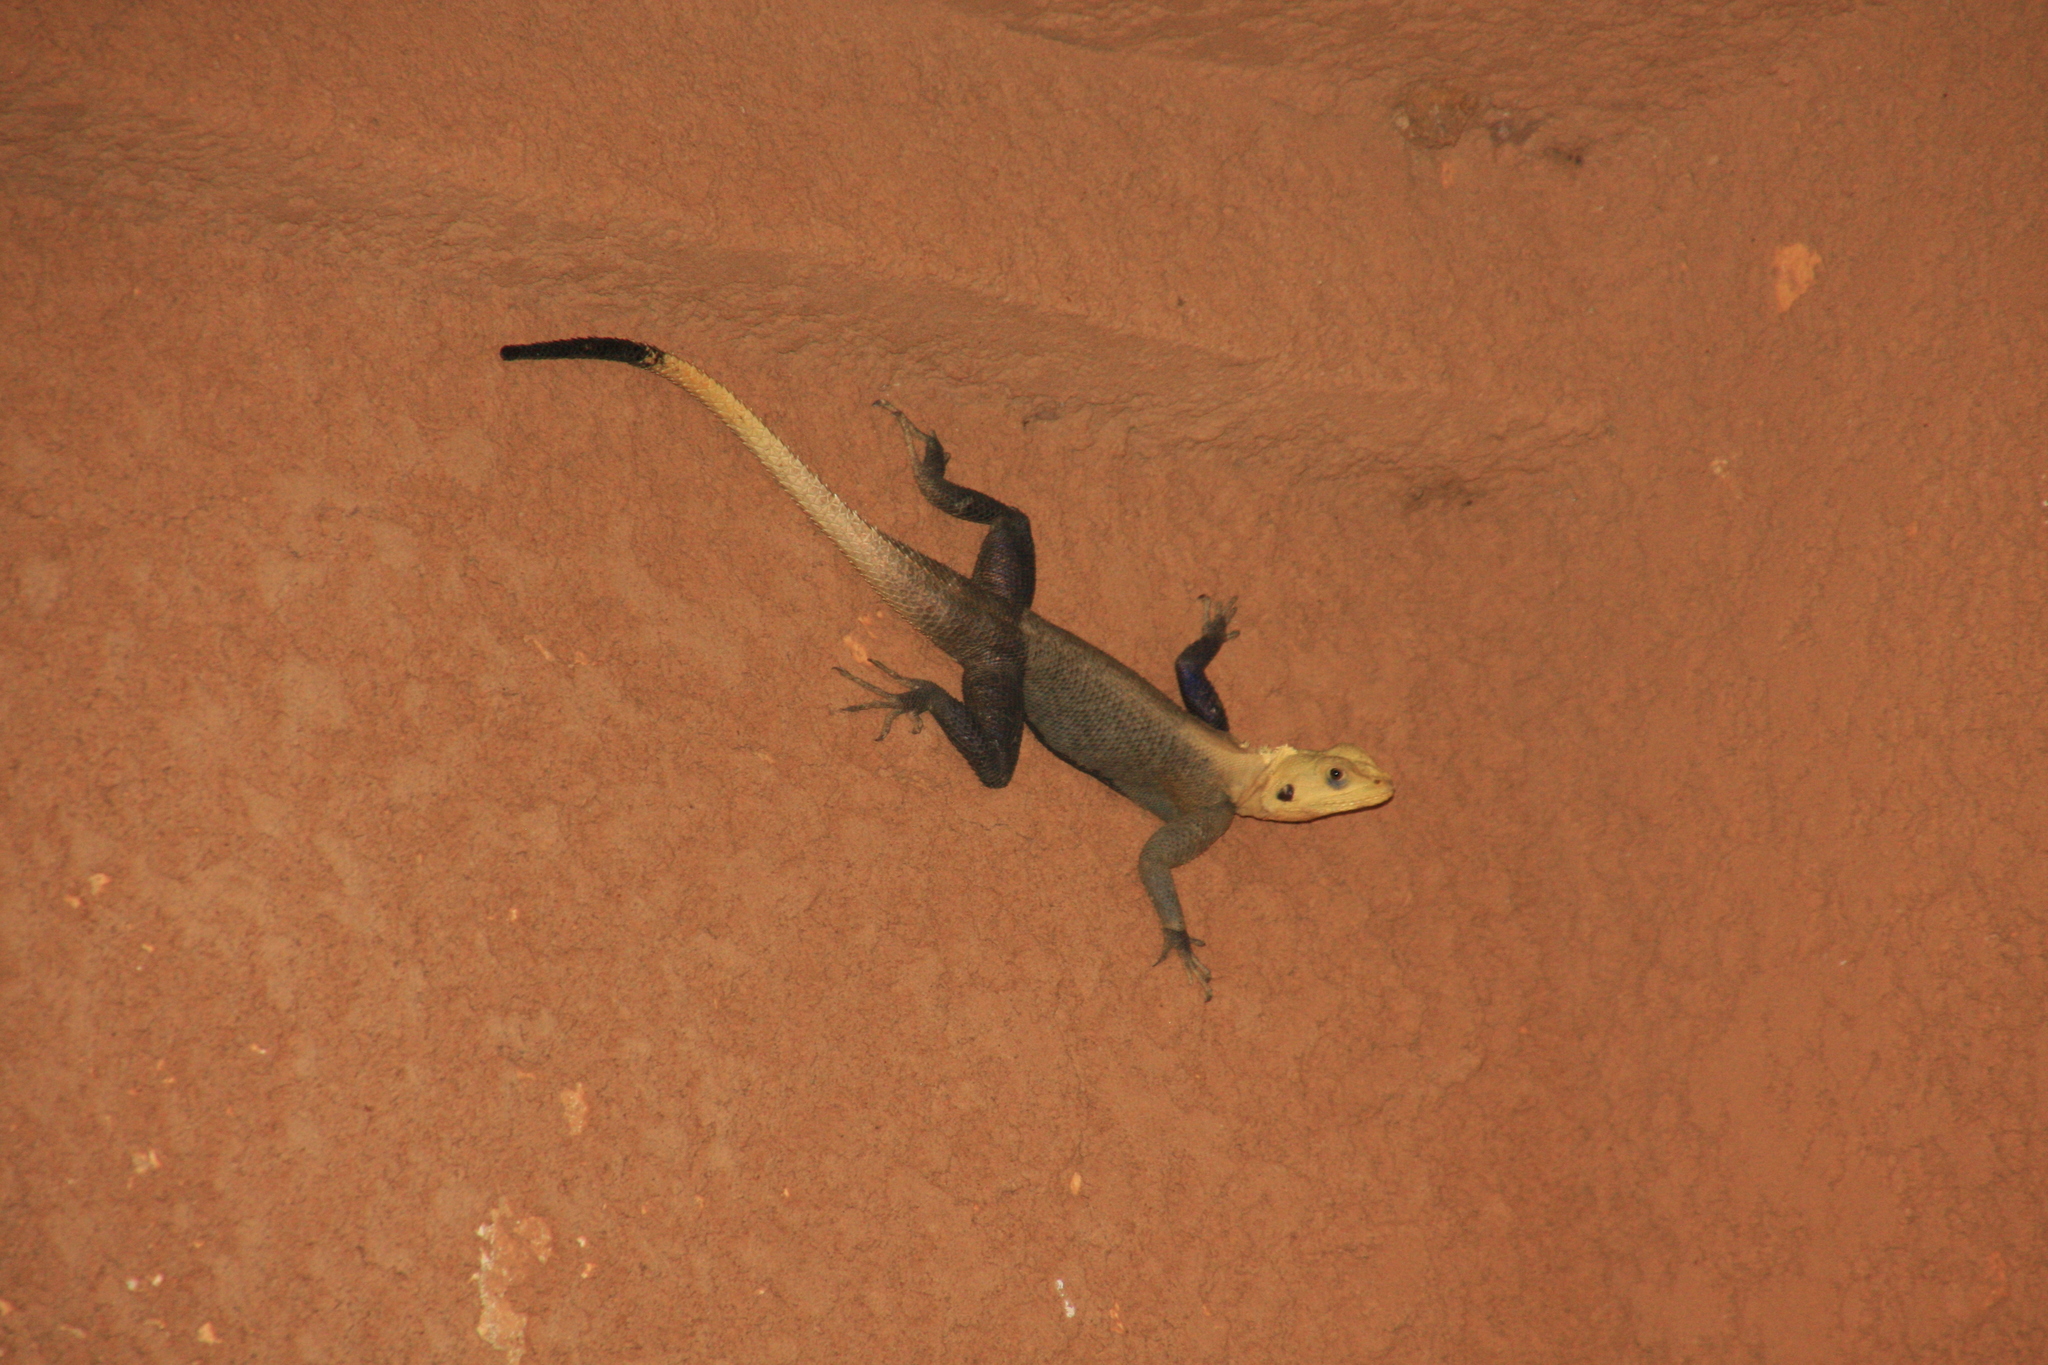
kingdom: Animalia
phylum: Chordata
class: Squamata
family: Agamidae
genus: Agama
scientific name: Agama paragama
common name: False agama
